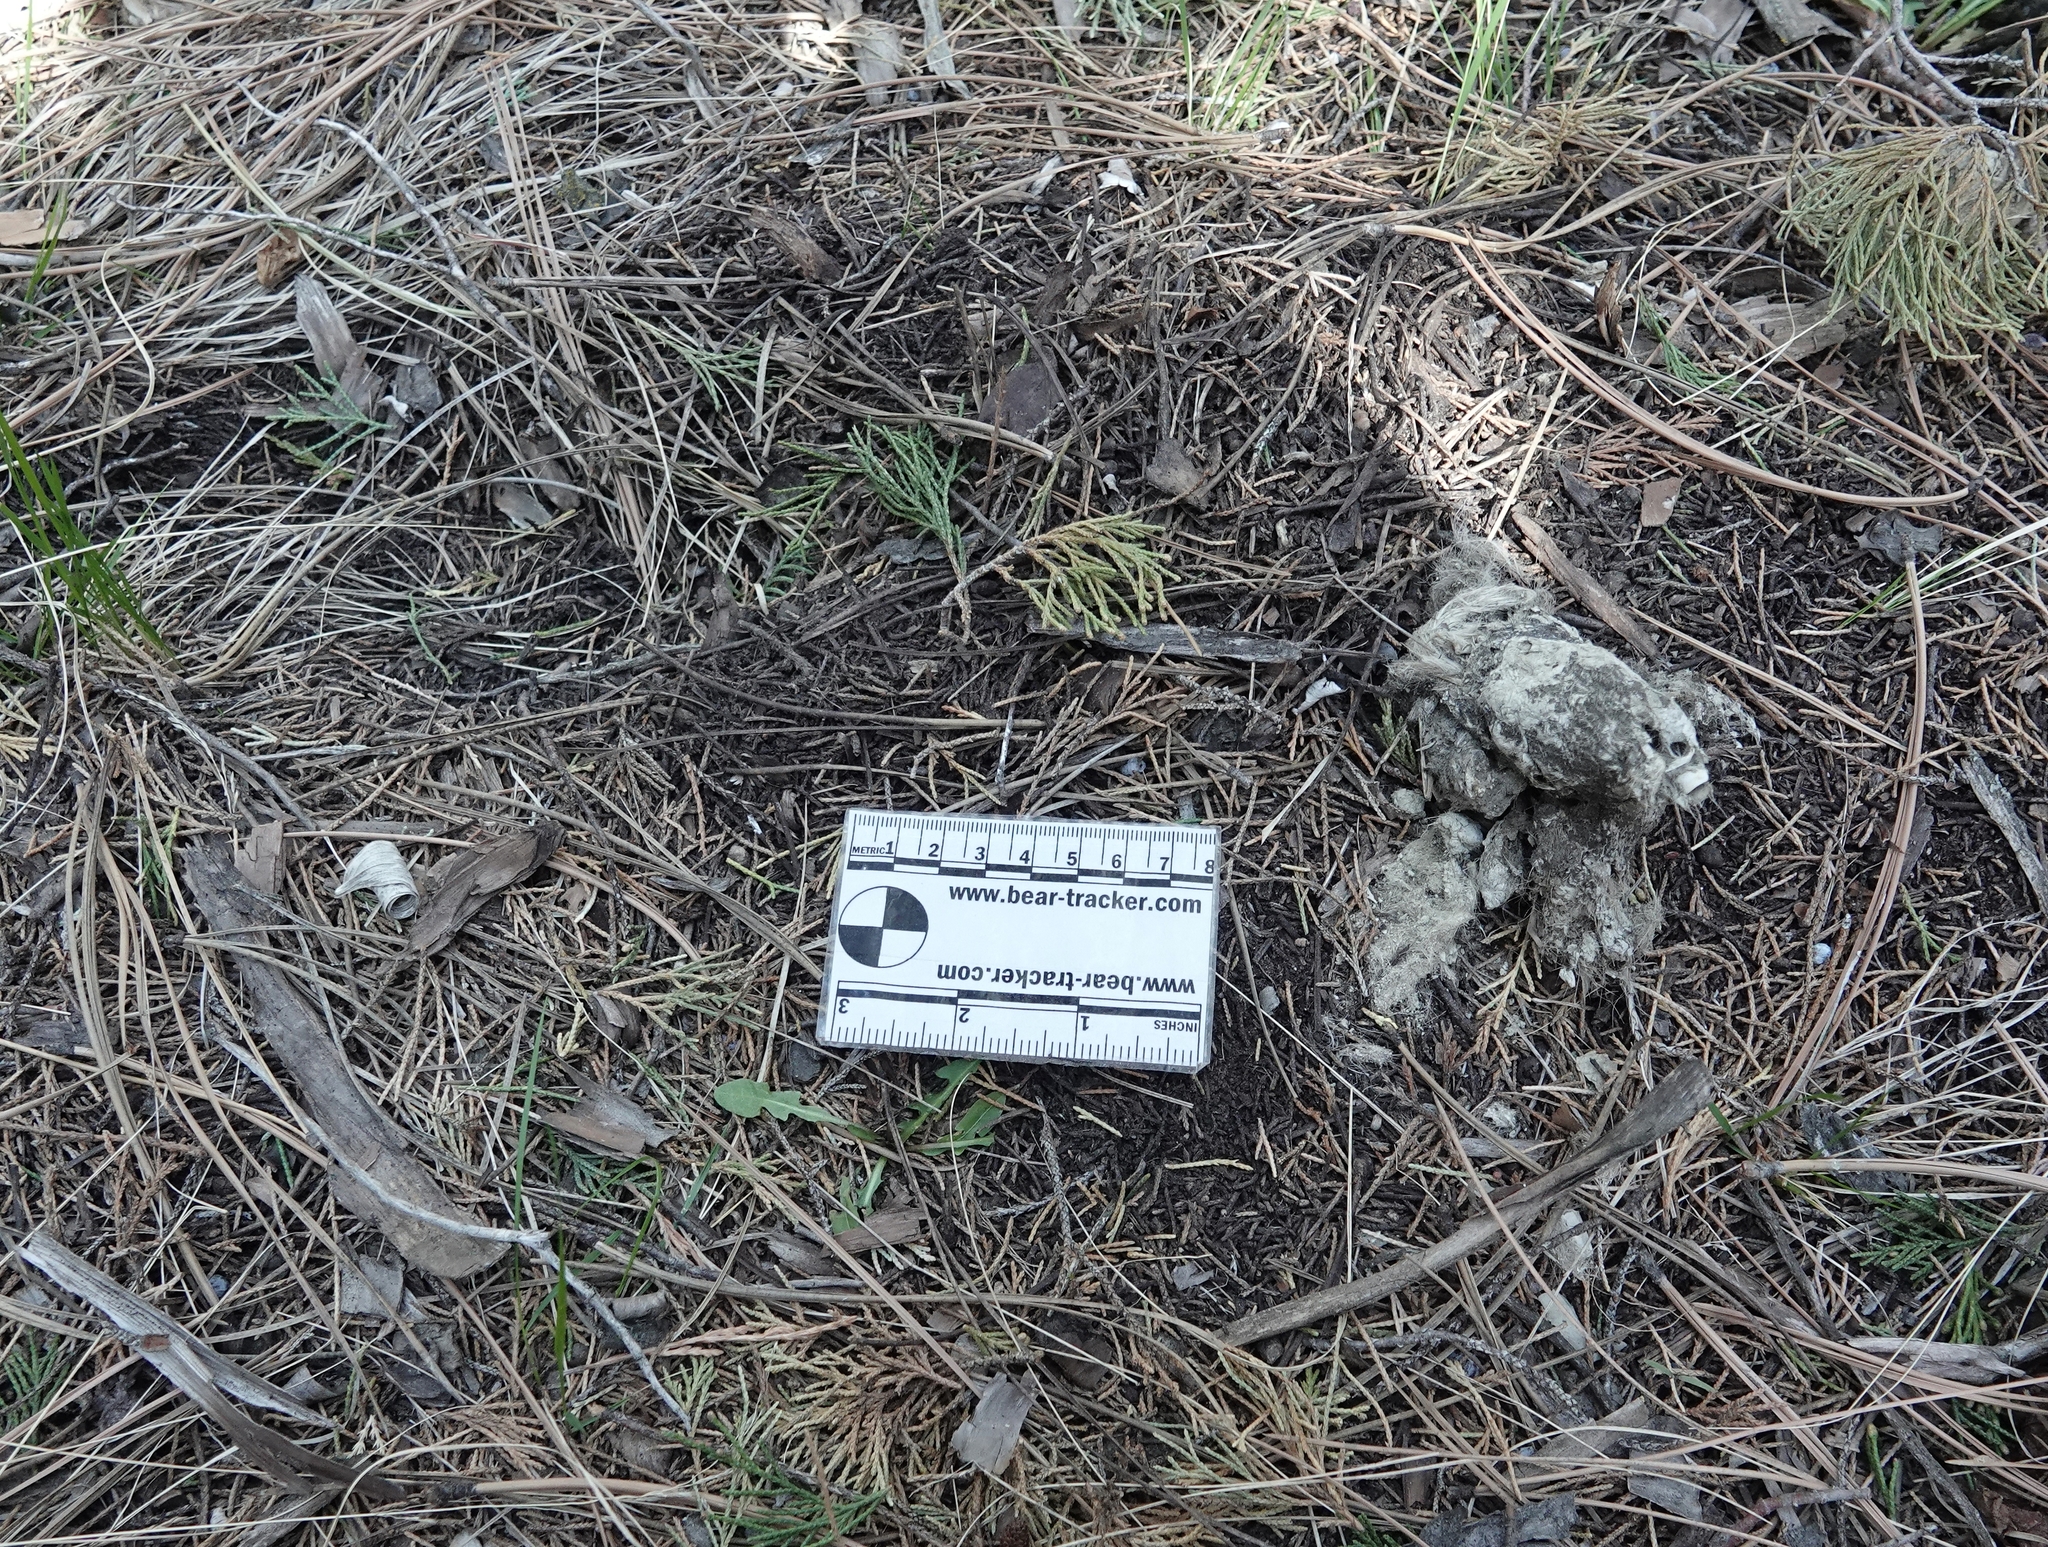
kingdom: Animalia
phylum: Chordata
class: Mammalia
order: Carnivora
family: Felidae
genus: Puma
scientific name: Puma concolor
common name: Puma
